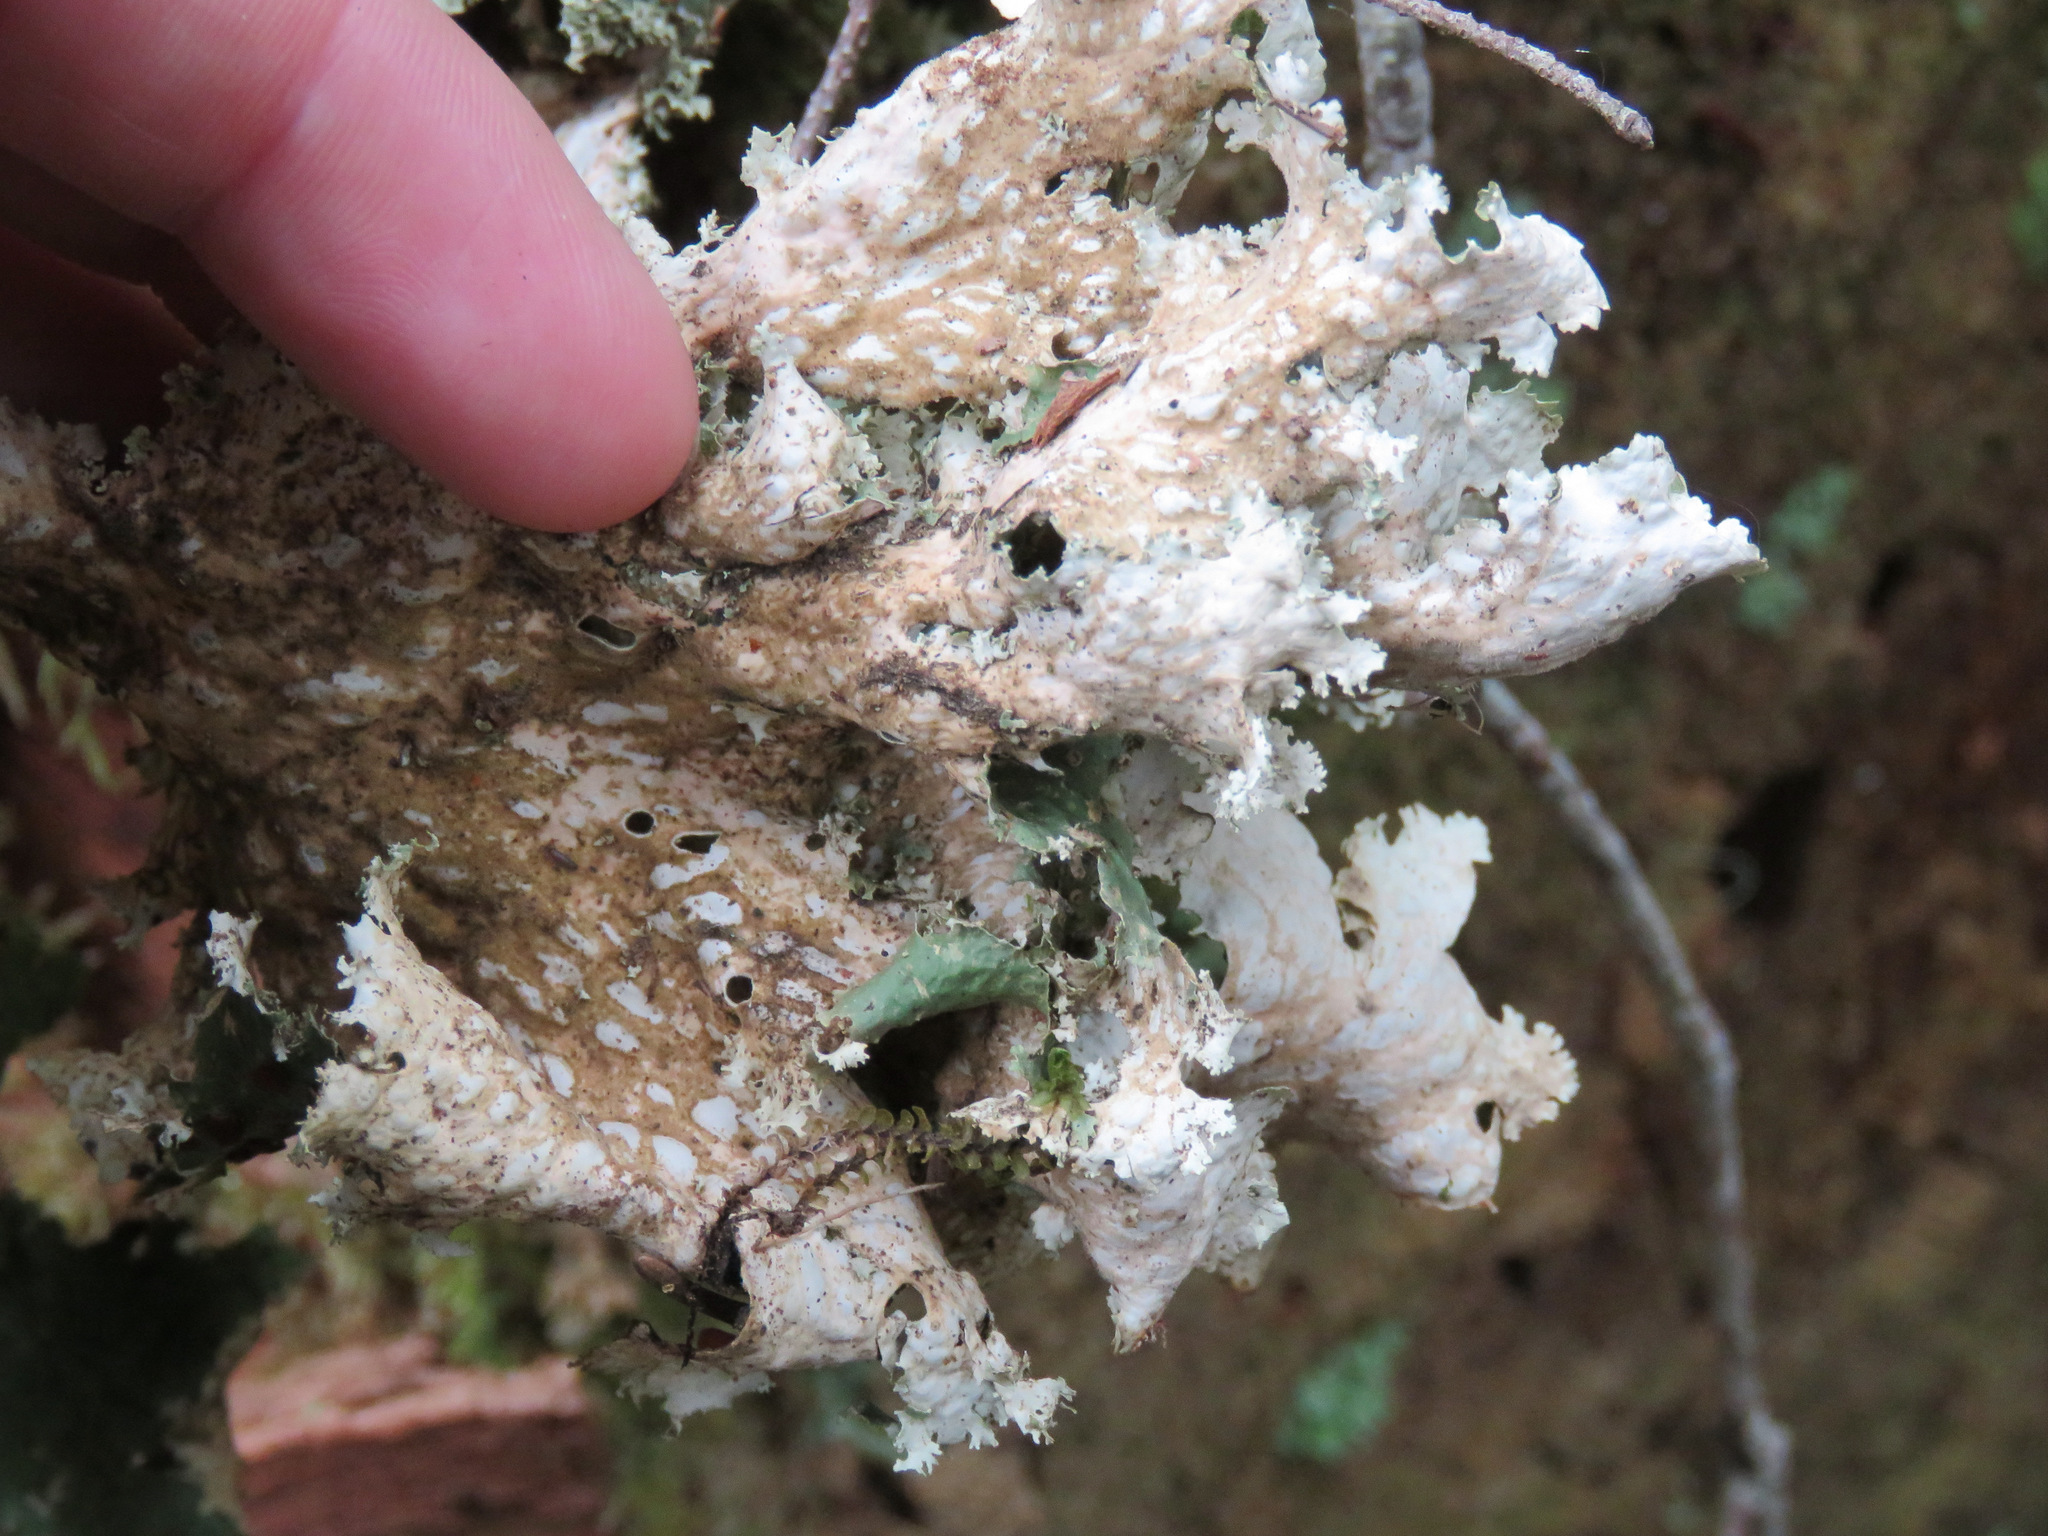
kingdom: Fungi
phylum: Ascomycota
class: Lecanoromycetes
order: Peltigerales
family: Lobariaceae
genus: Lobaria
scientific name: Lobaria oregana
